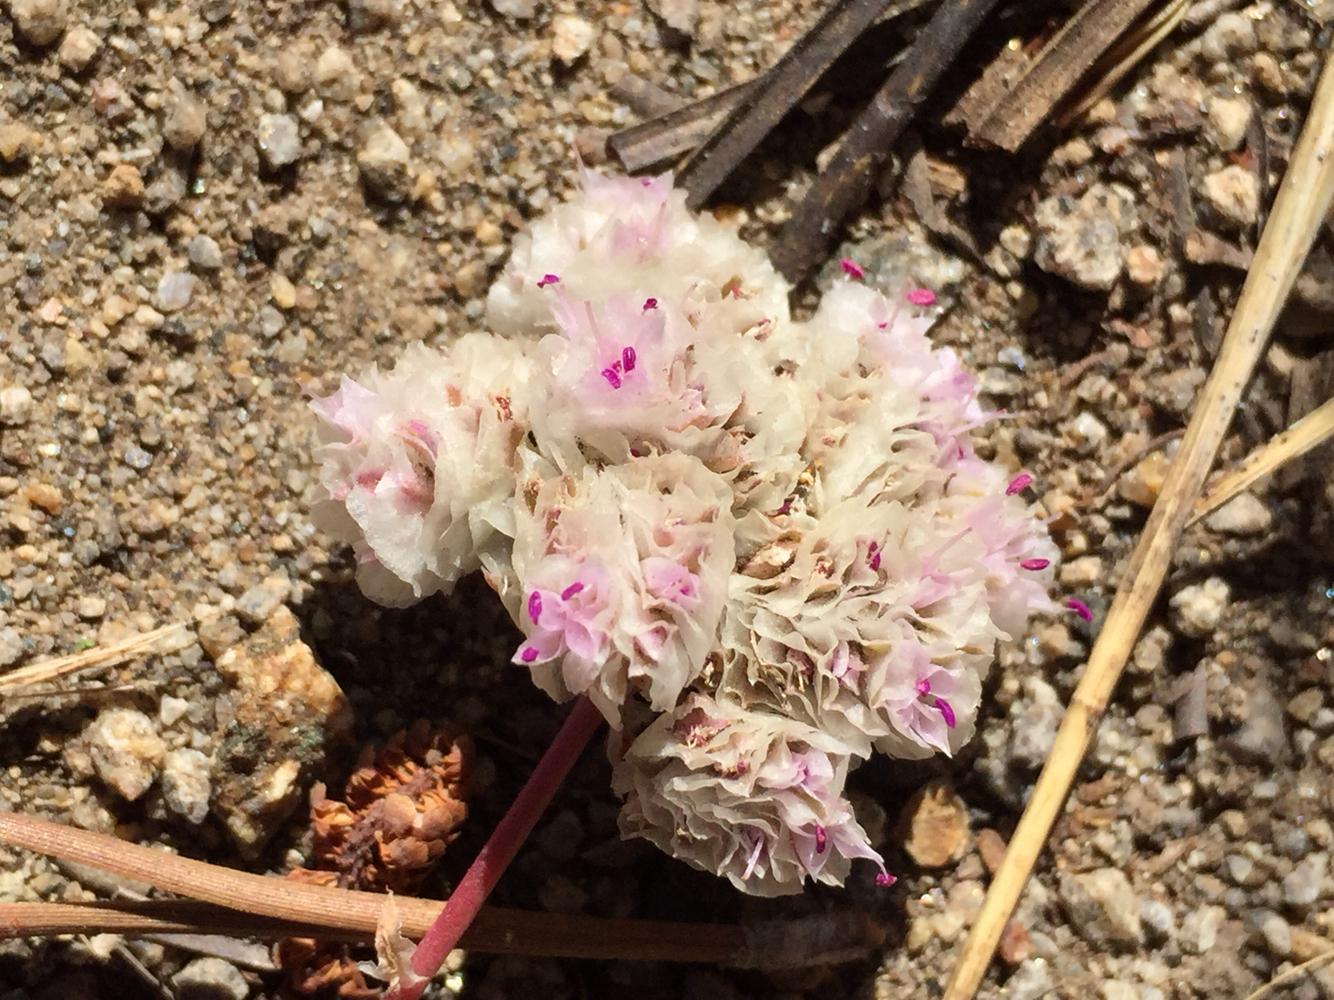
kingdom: Plantae
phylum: Tracheophyta
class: Magnoliopsida
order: Caryophyllales
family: Montiaceae
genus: Calyptridium
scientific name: Calyptridium monospermum
